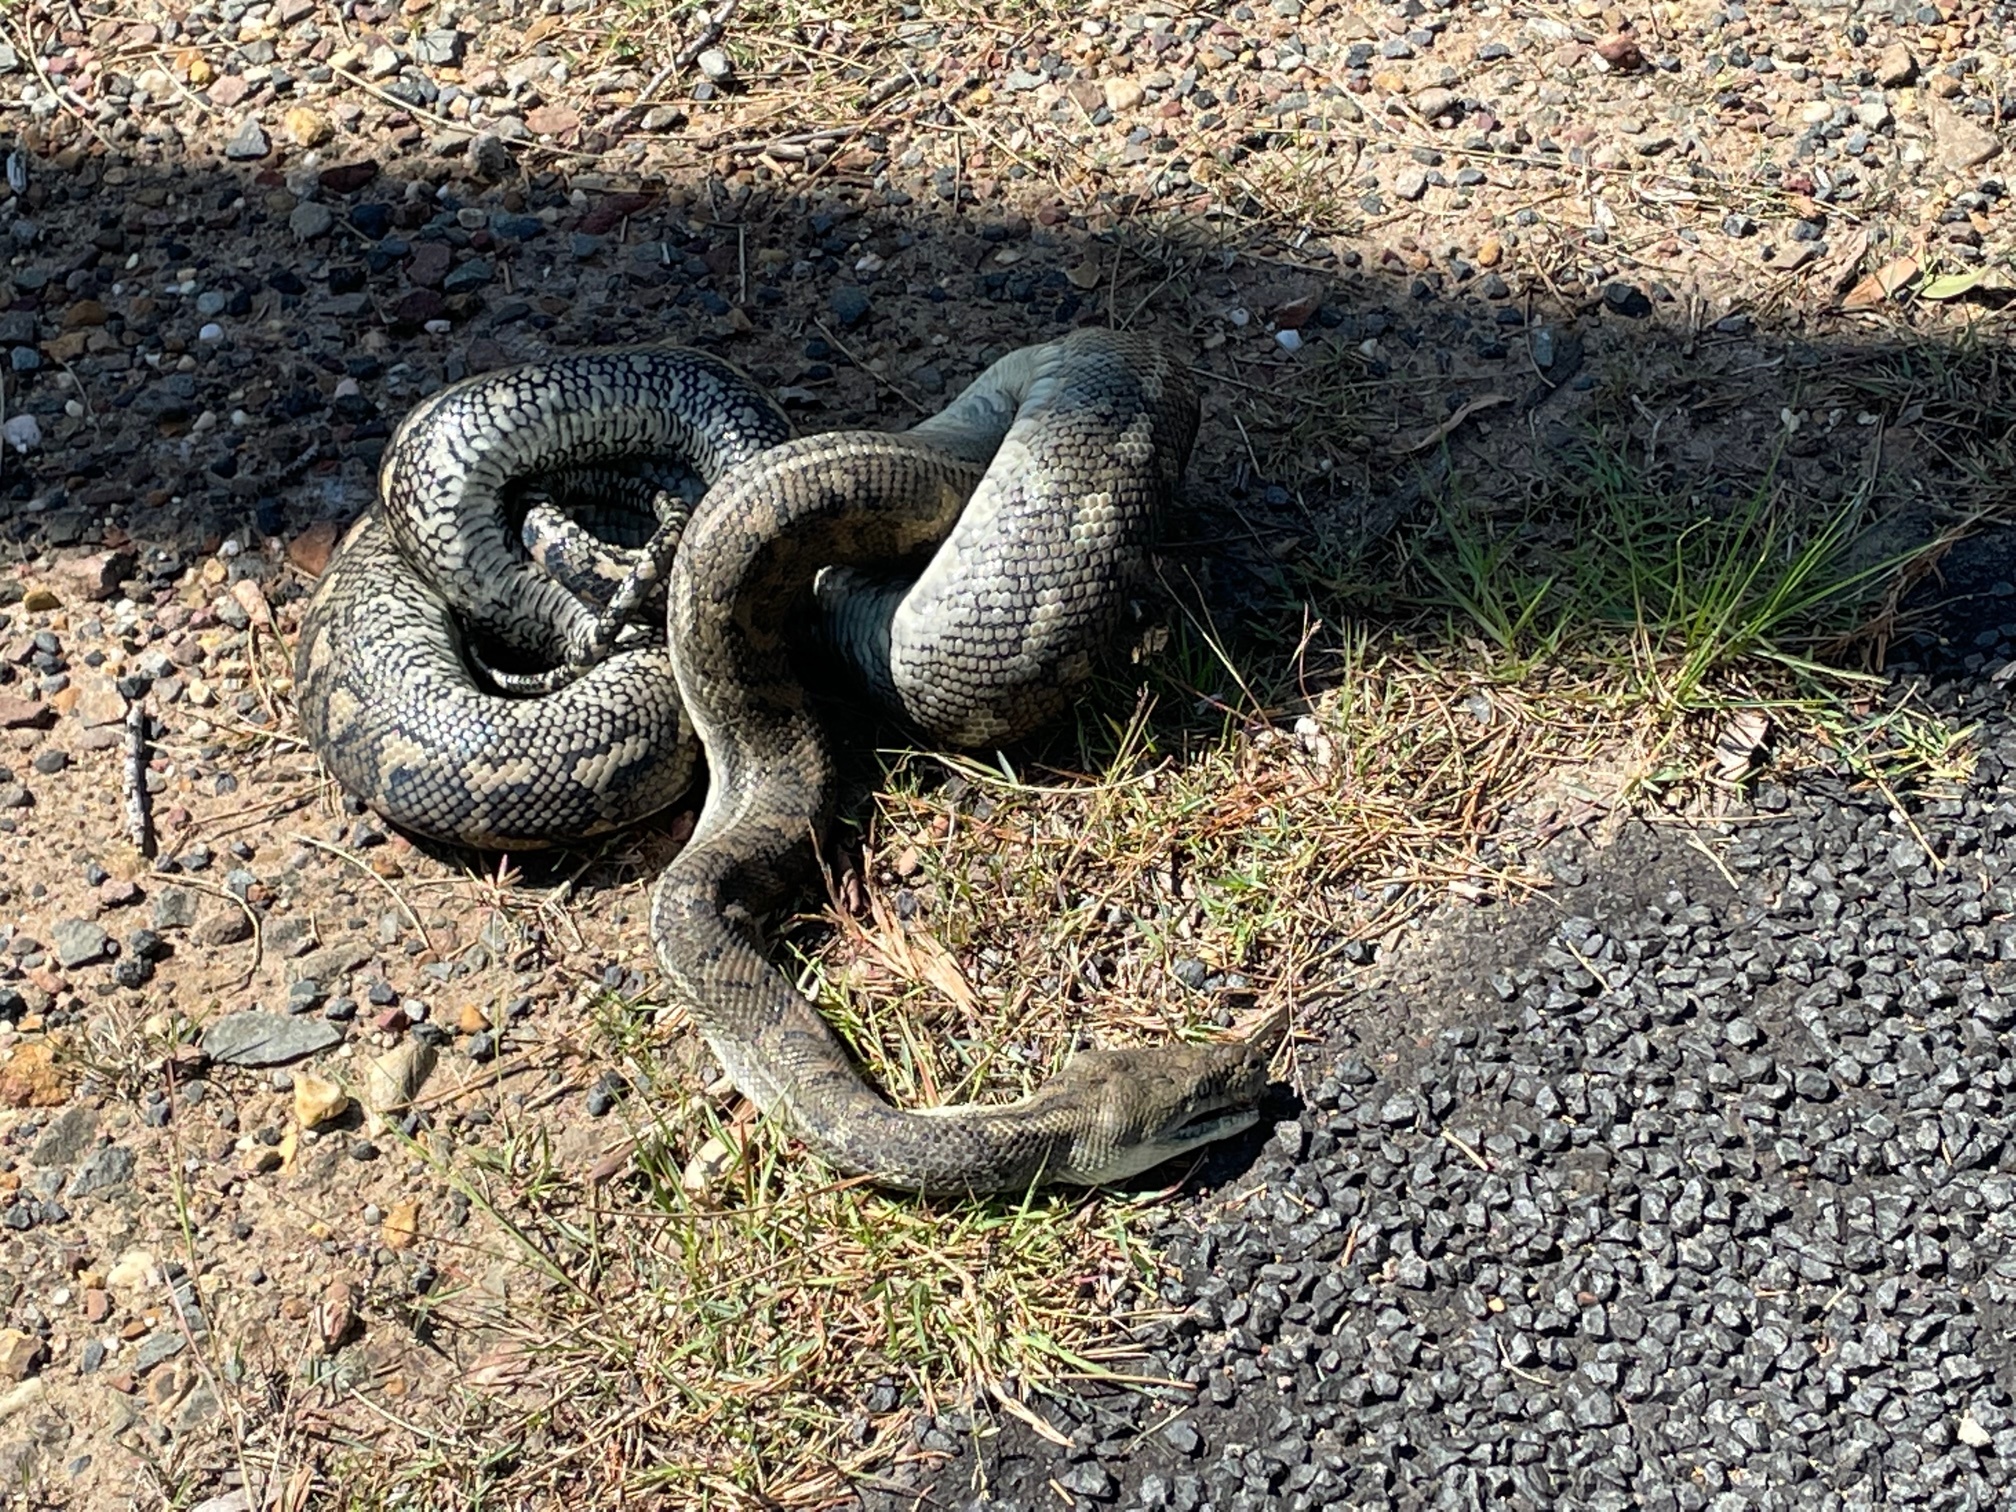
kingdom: Animalia
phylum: Chordata
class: Squamata
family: Pythonidae
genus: Morelia
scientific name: Morelia spilota
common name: Carpet python
